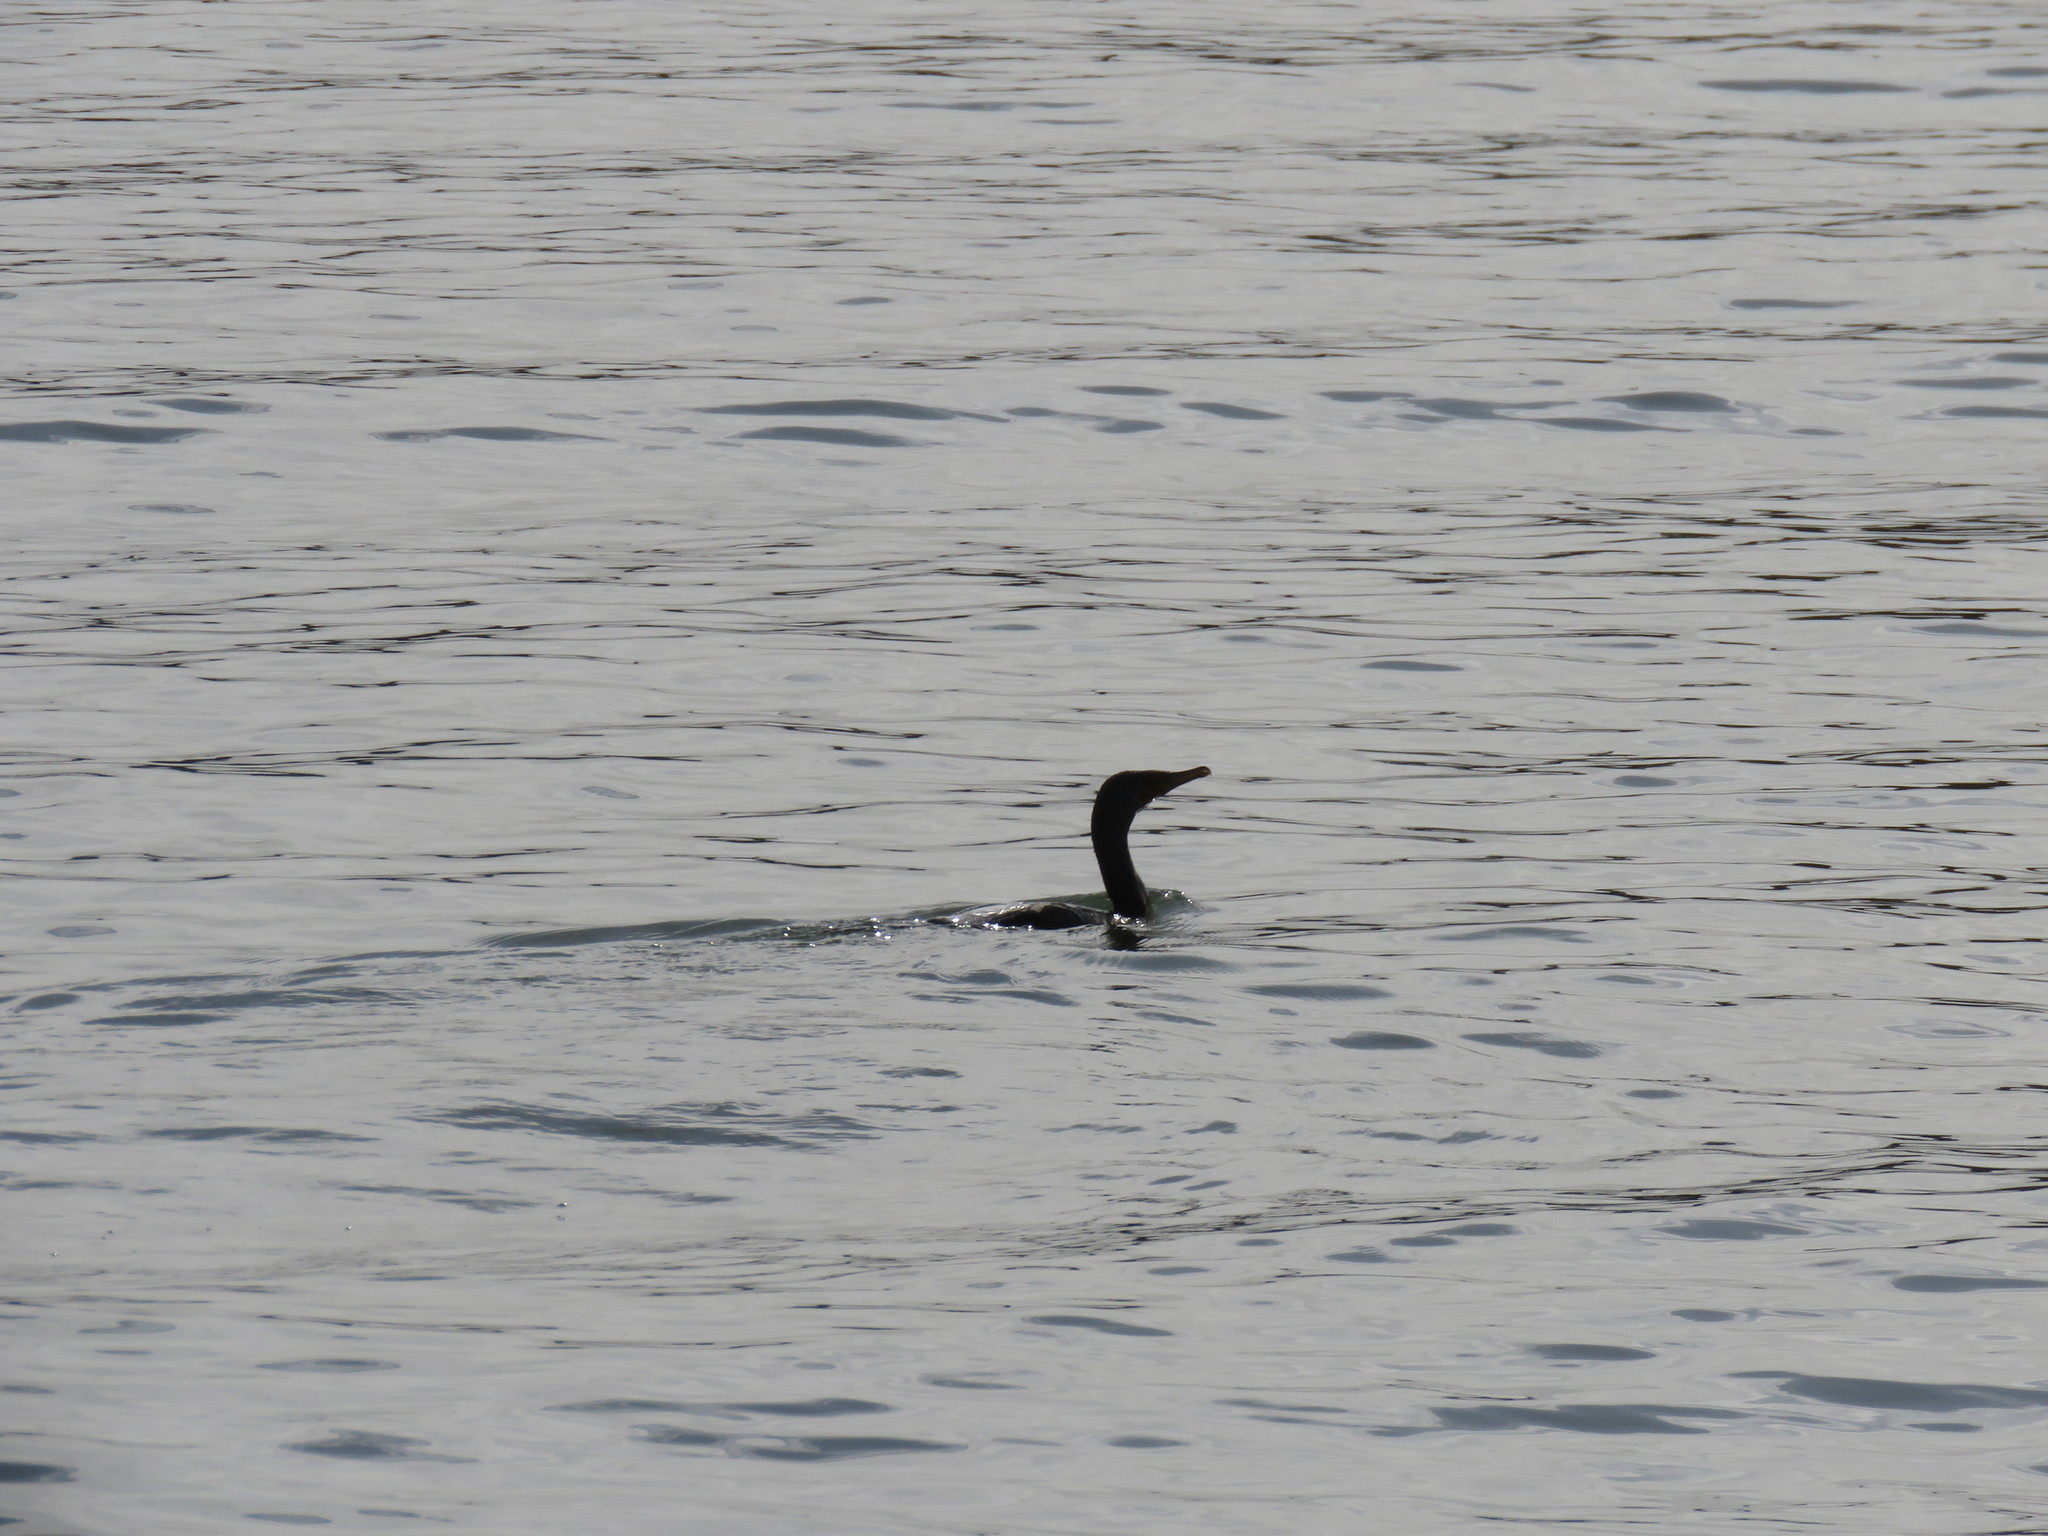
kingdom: Animalia
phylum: Chordata
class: Aves
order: Suliformes
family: Phalacrocoracidae
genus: Phalacrocorax
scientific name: Phalacrocorax auritus
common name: Double-crested cormorant
